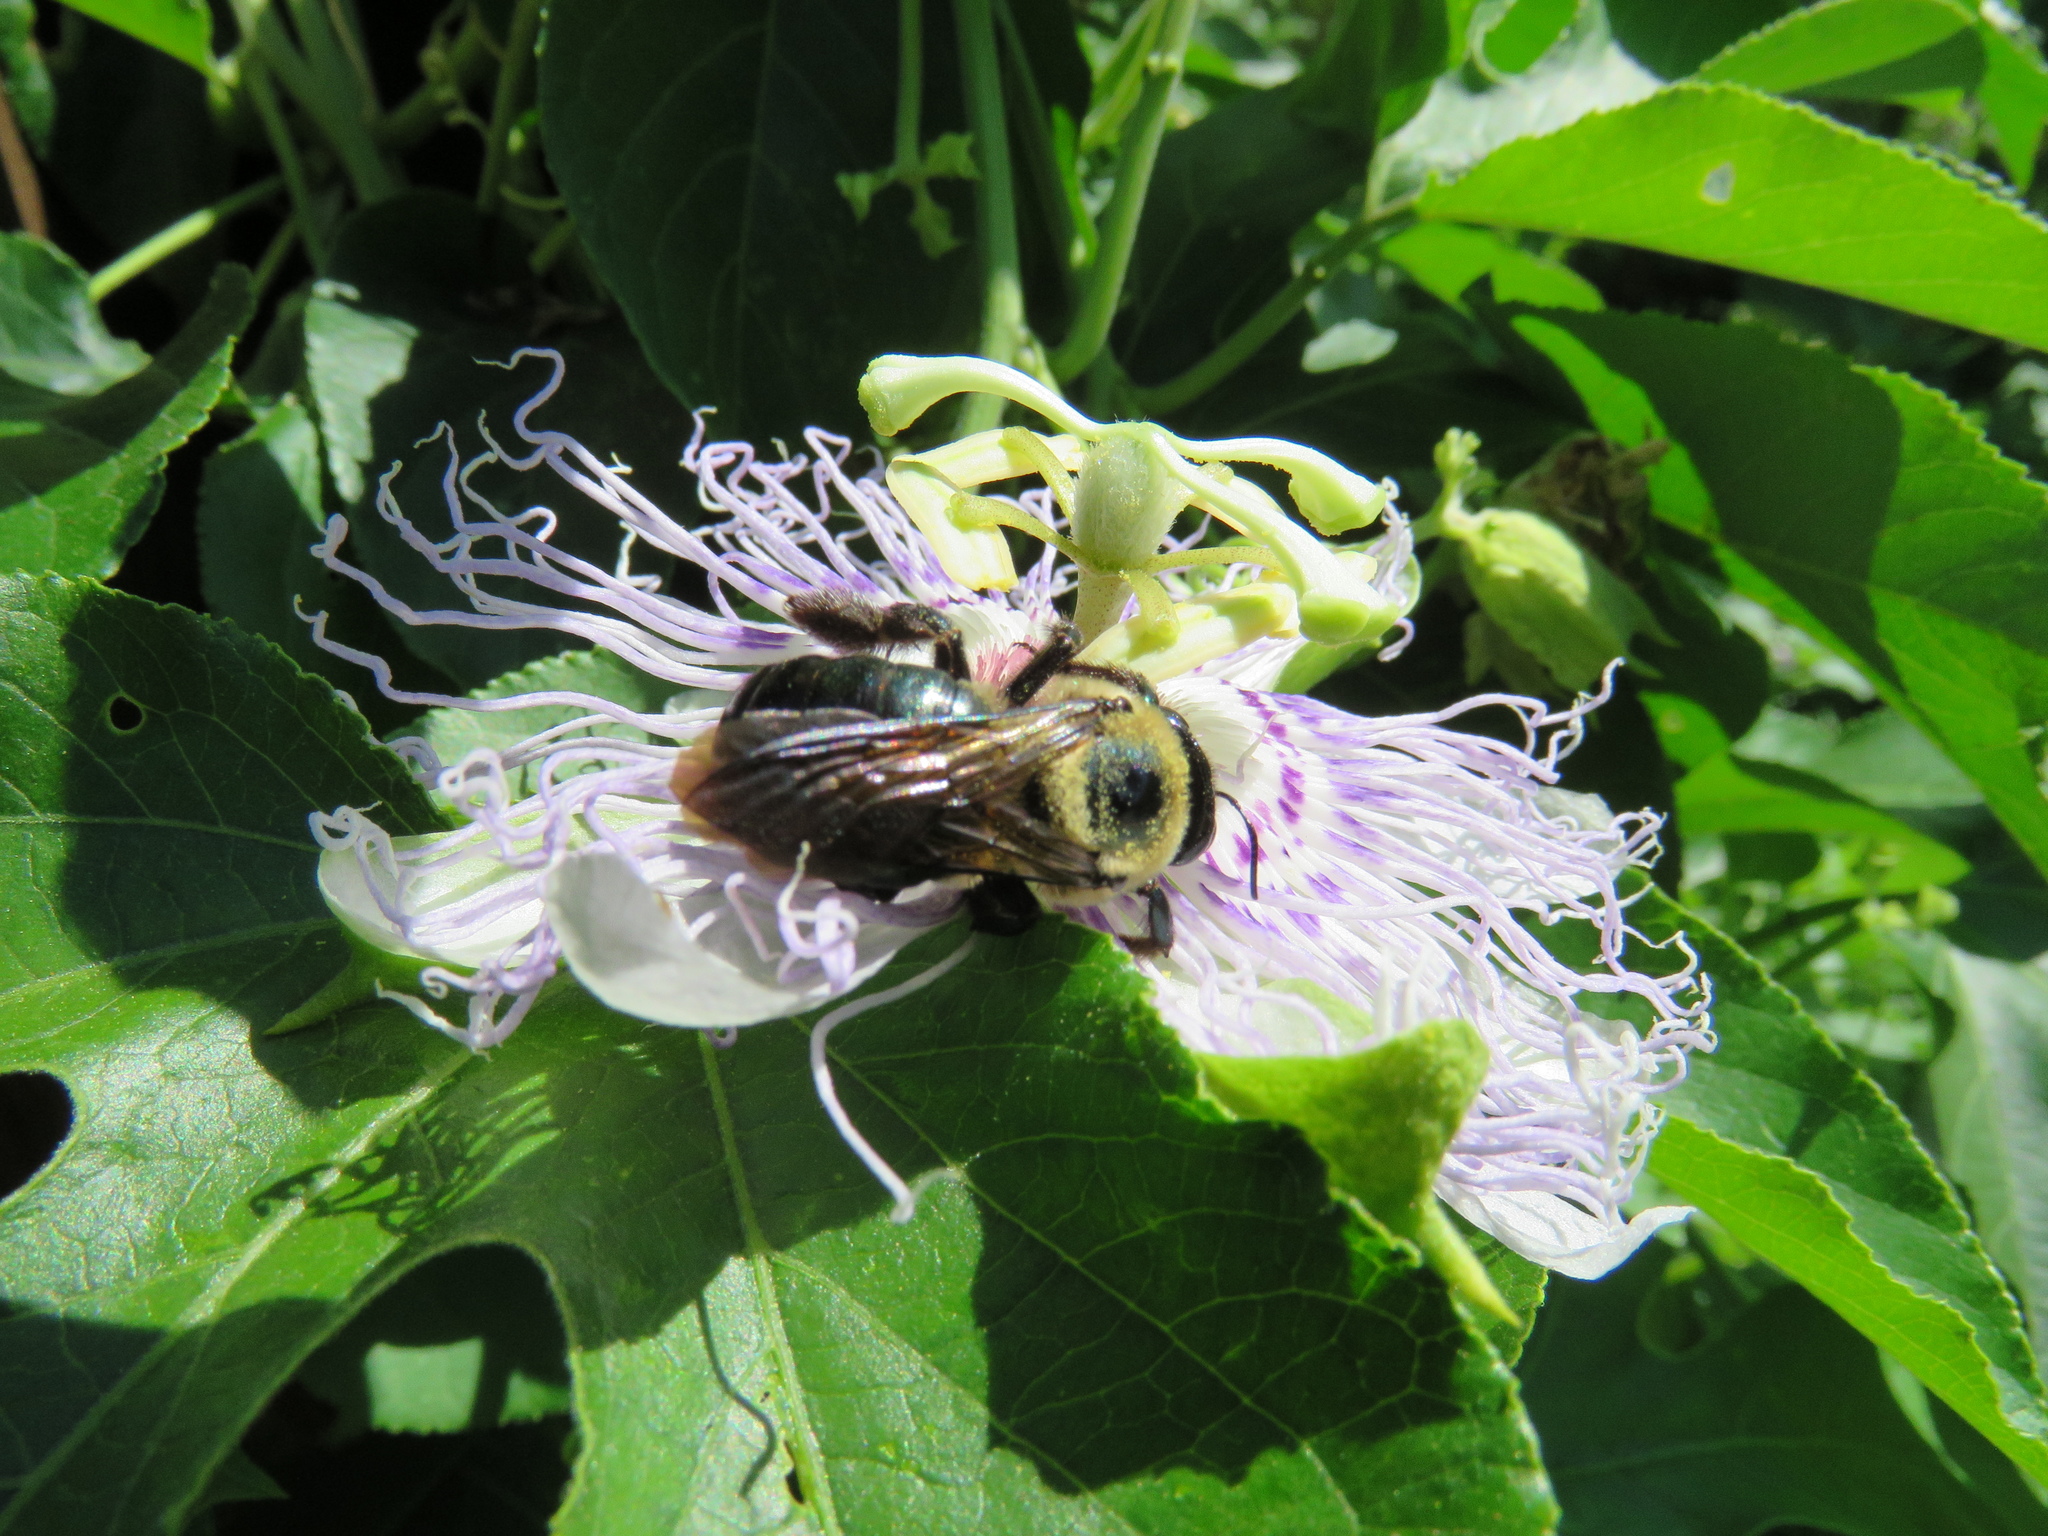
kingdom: Animalia
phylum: Arthropoda
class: Insecta
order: Hymenoptera
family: Apidae
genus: Xylocopa
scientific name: Xylocopa virginica
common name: Carpenter bee
